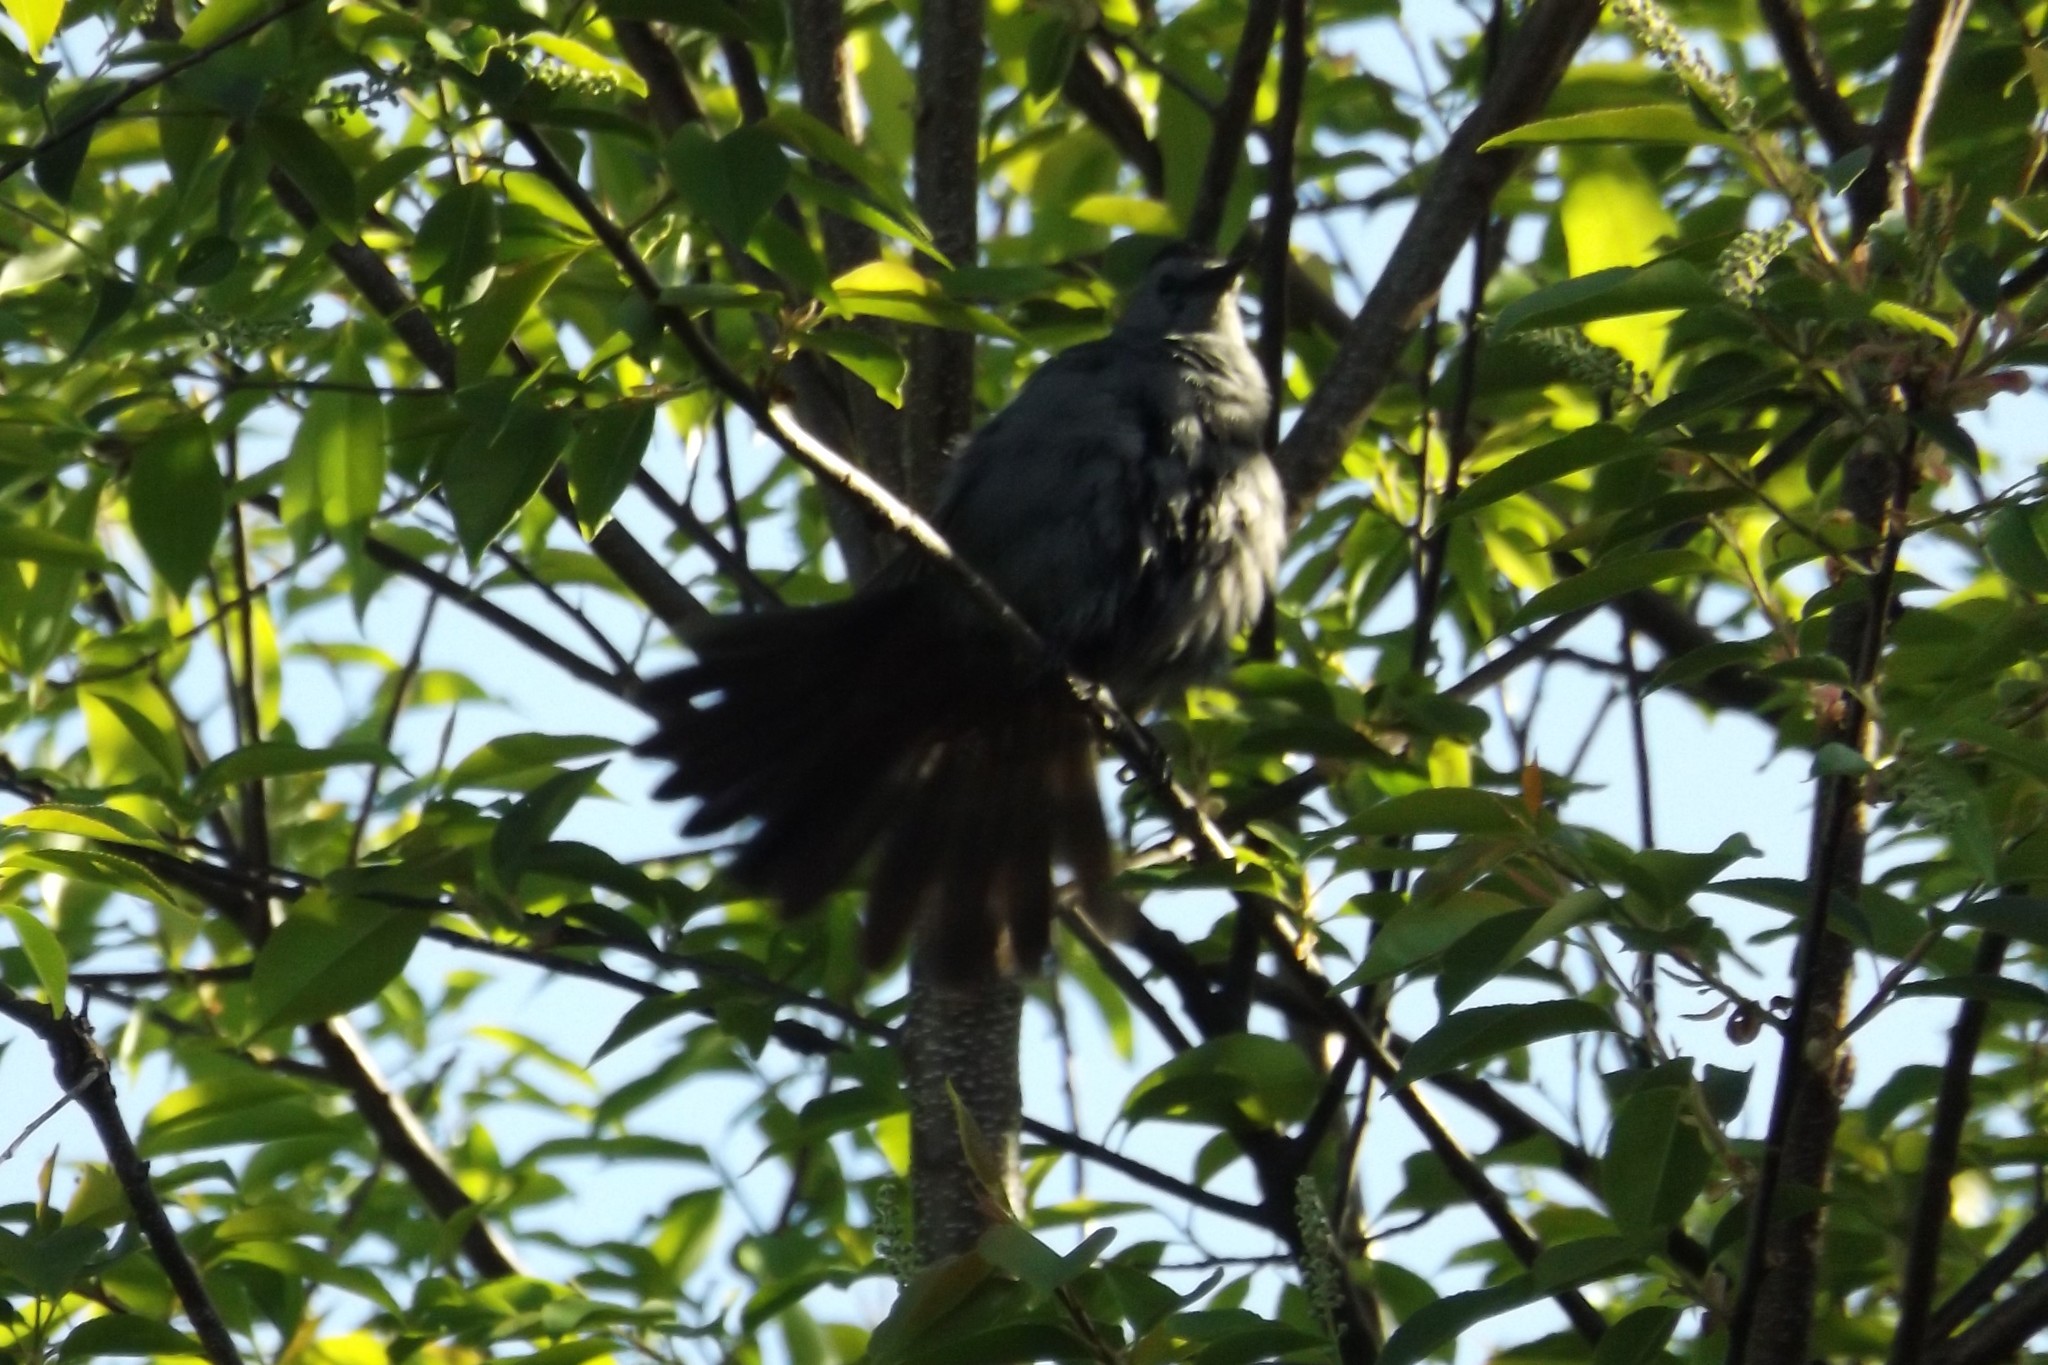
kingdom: Animalia
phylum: Chordata
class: Aves
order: Passeriformes
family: Mimidae
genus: Dumetella
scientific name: Dumetella carolinensis
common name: Gray catbird
